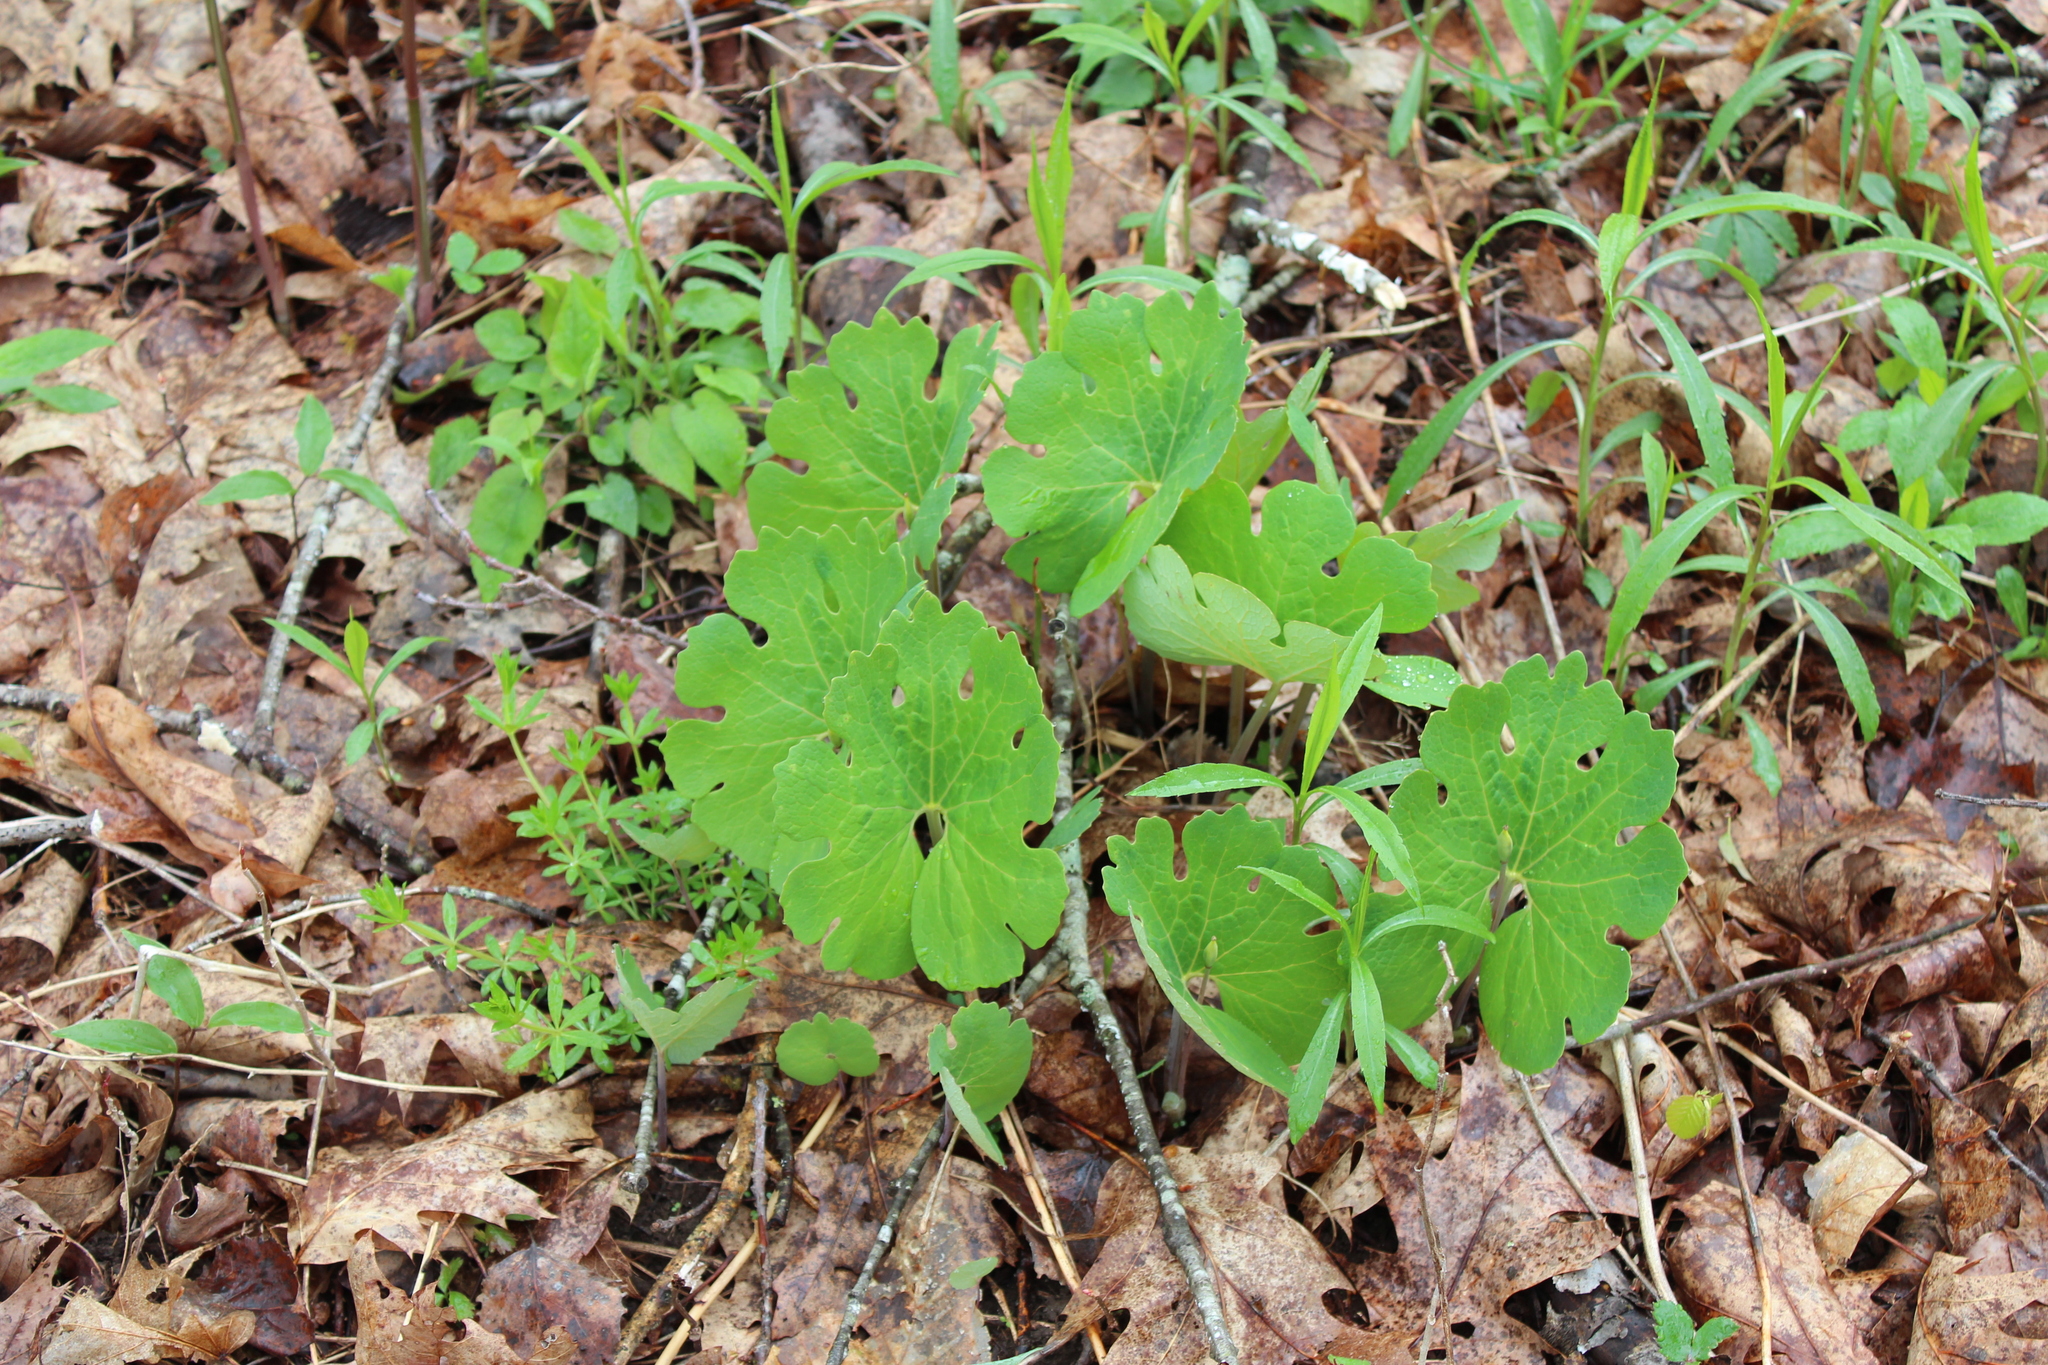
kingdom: Plantae
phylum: Tracheophyta
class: Magnoliopsida
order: Ranunculales
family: Papaveraceae
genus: Sanguinaria
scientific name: Sanguinaria canadensis
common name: Bloodroot
